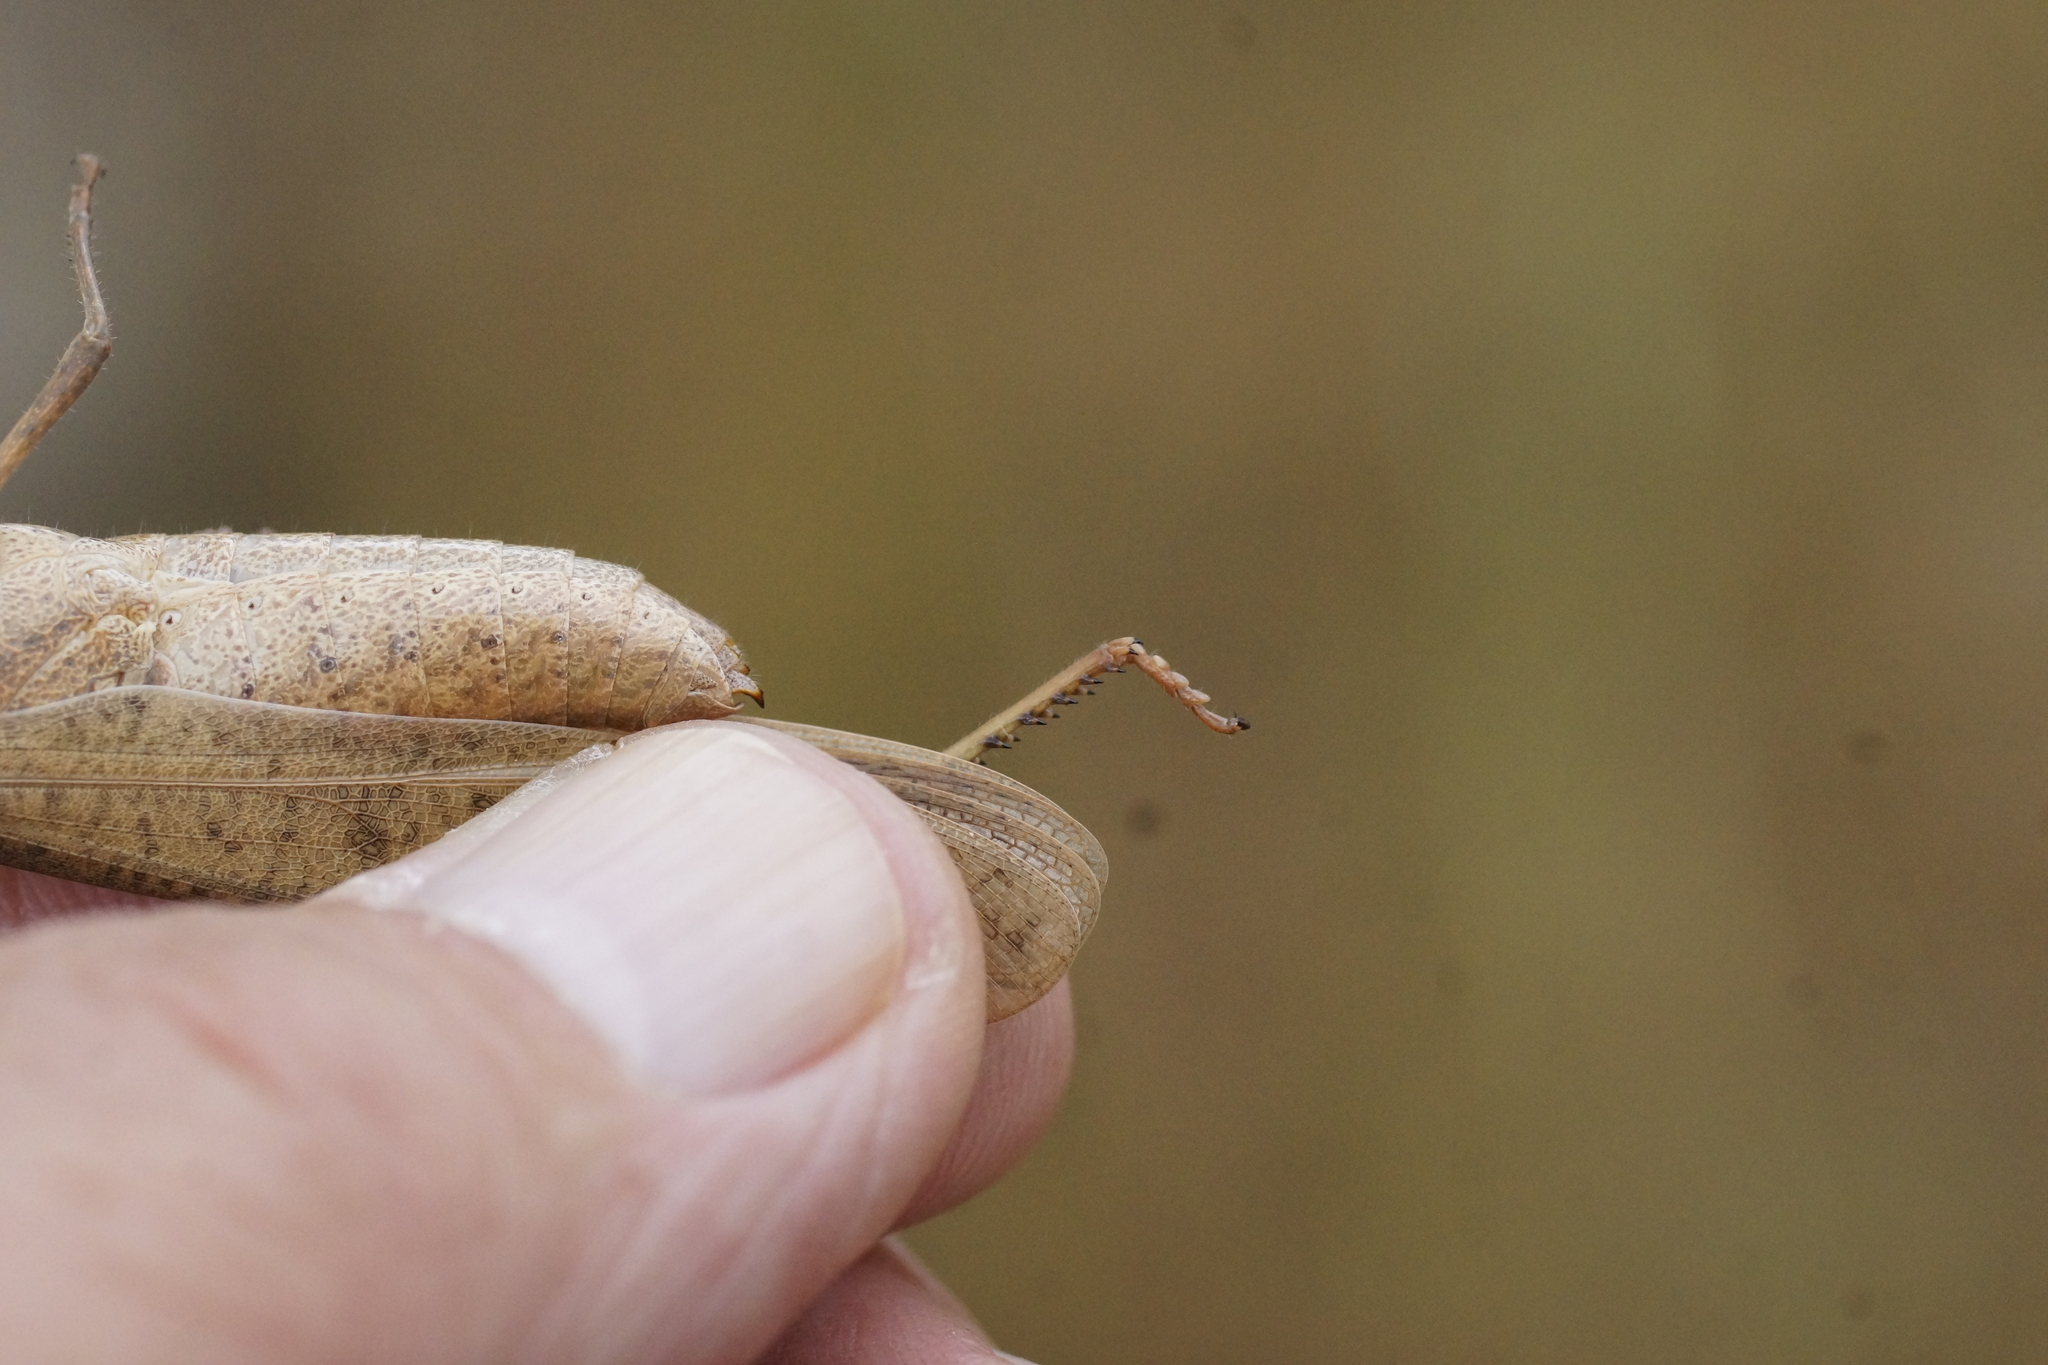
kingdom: Animalia
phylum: Arthropoda
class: Insecta
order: Orthoptera
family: Acrididae
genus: Goniaea
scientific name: Goniaea vocans
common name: Slender gumleaf grasshopper
